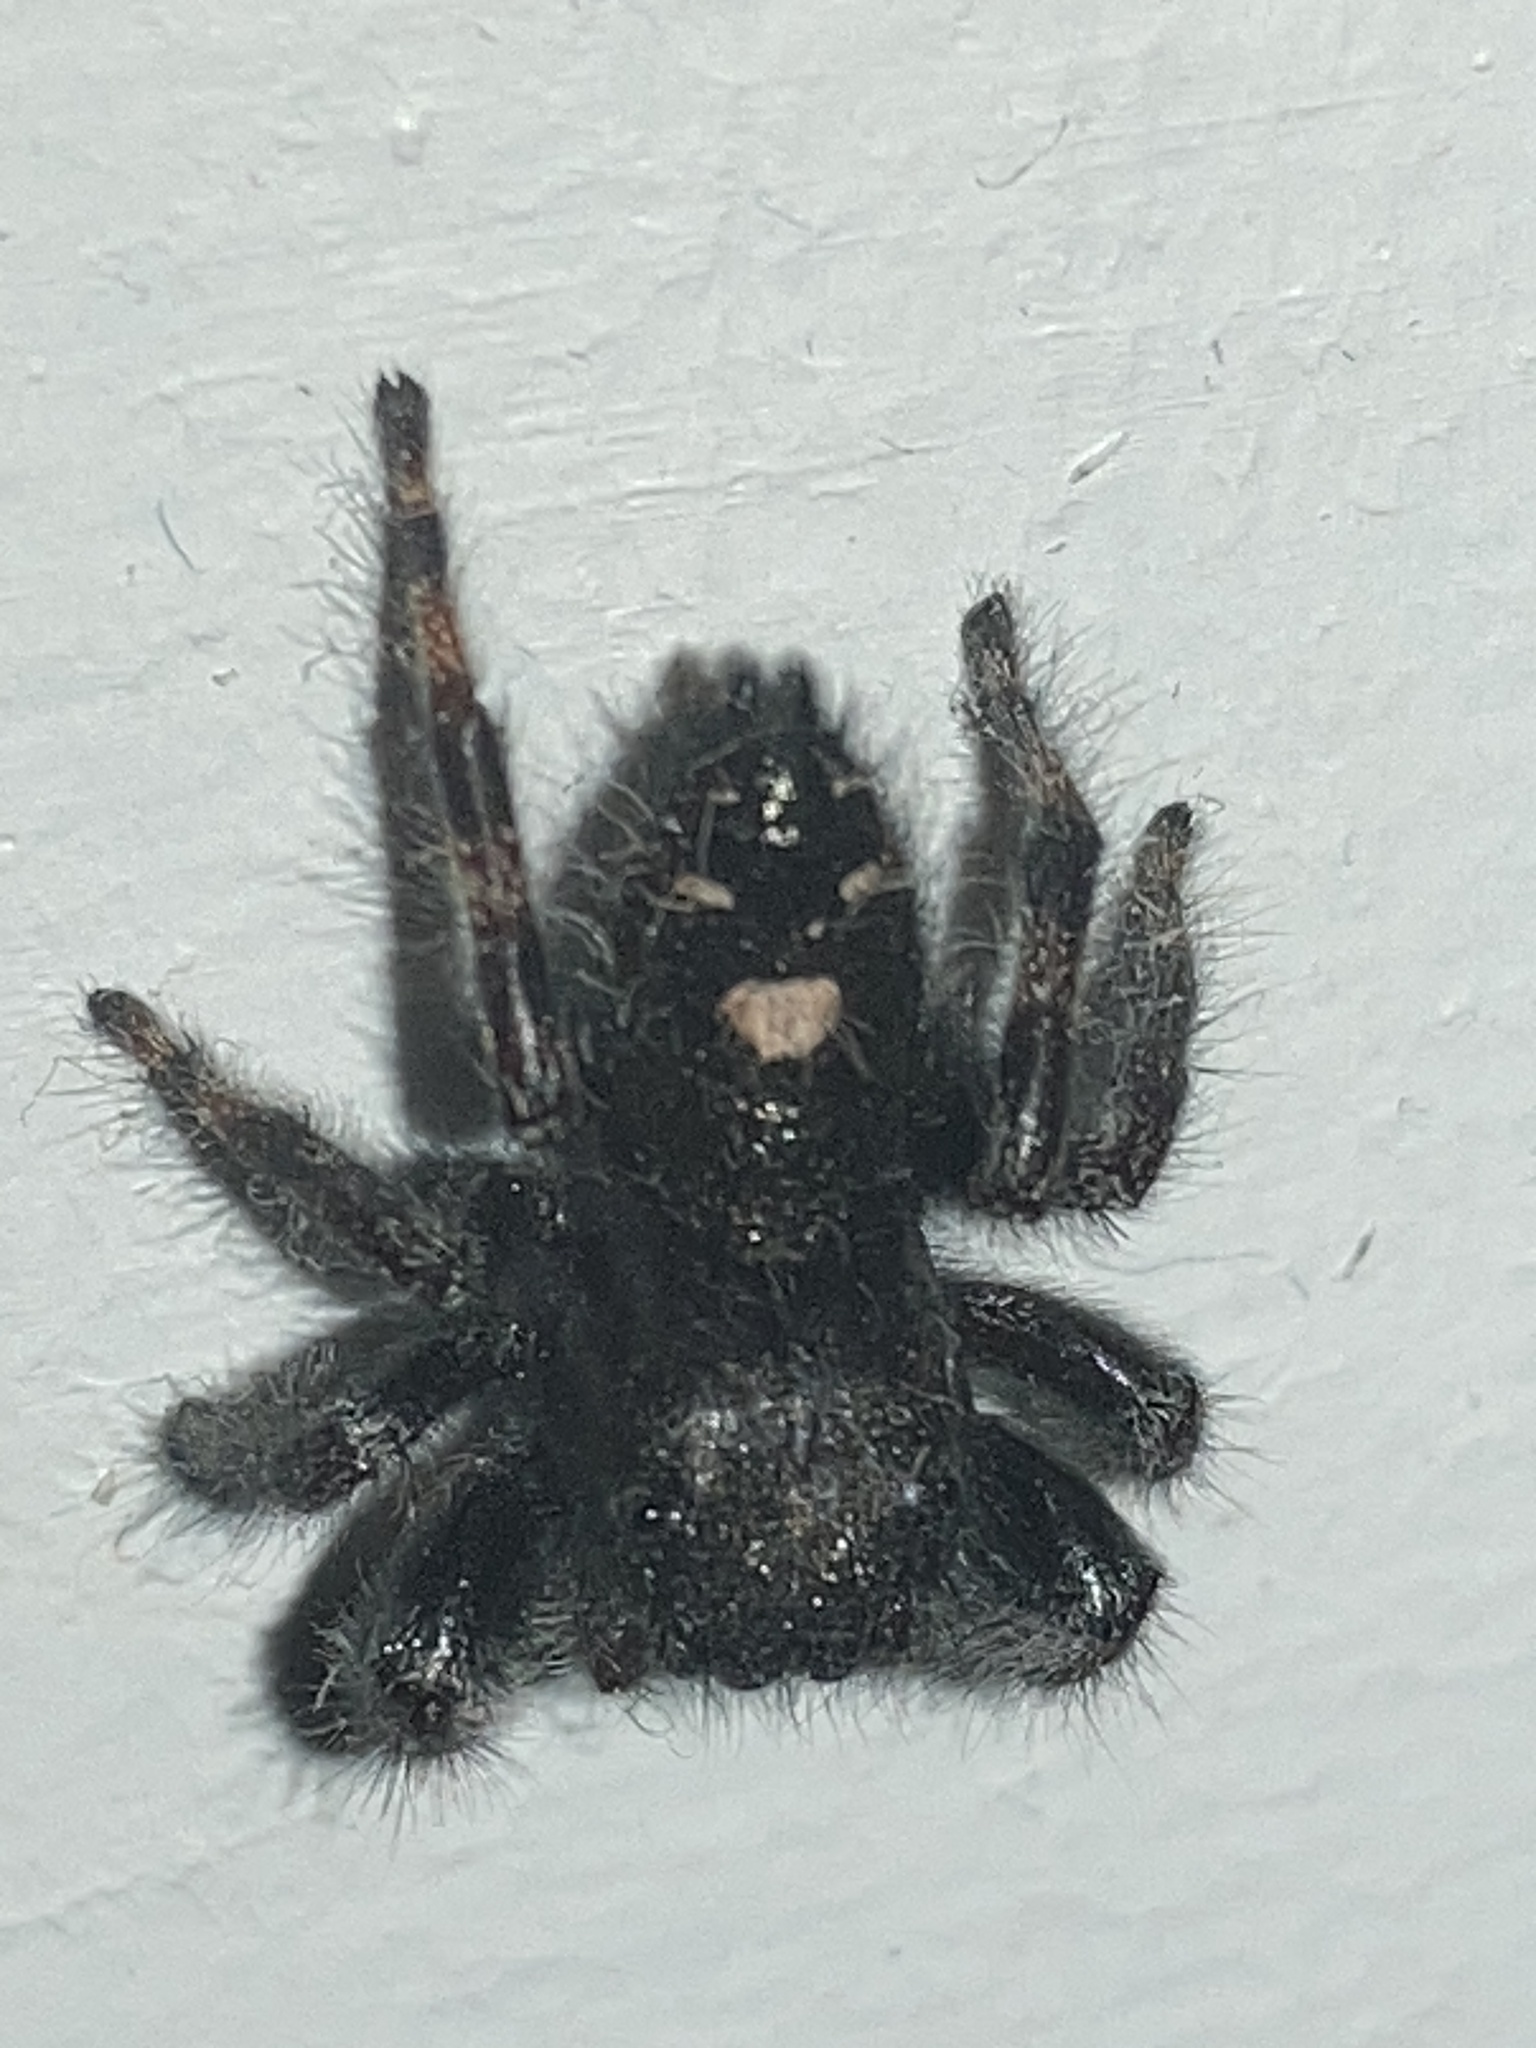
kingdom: Animalia
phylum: Arthropoda
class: Arachnida
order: Araneae
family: Salticidae
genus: Phidippus
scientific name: Phidippus audax
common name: Bold jumper
